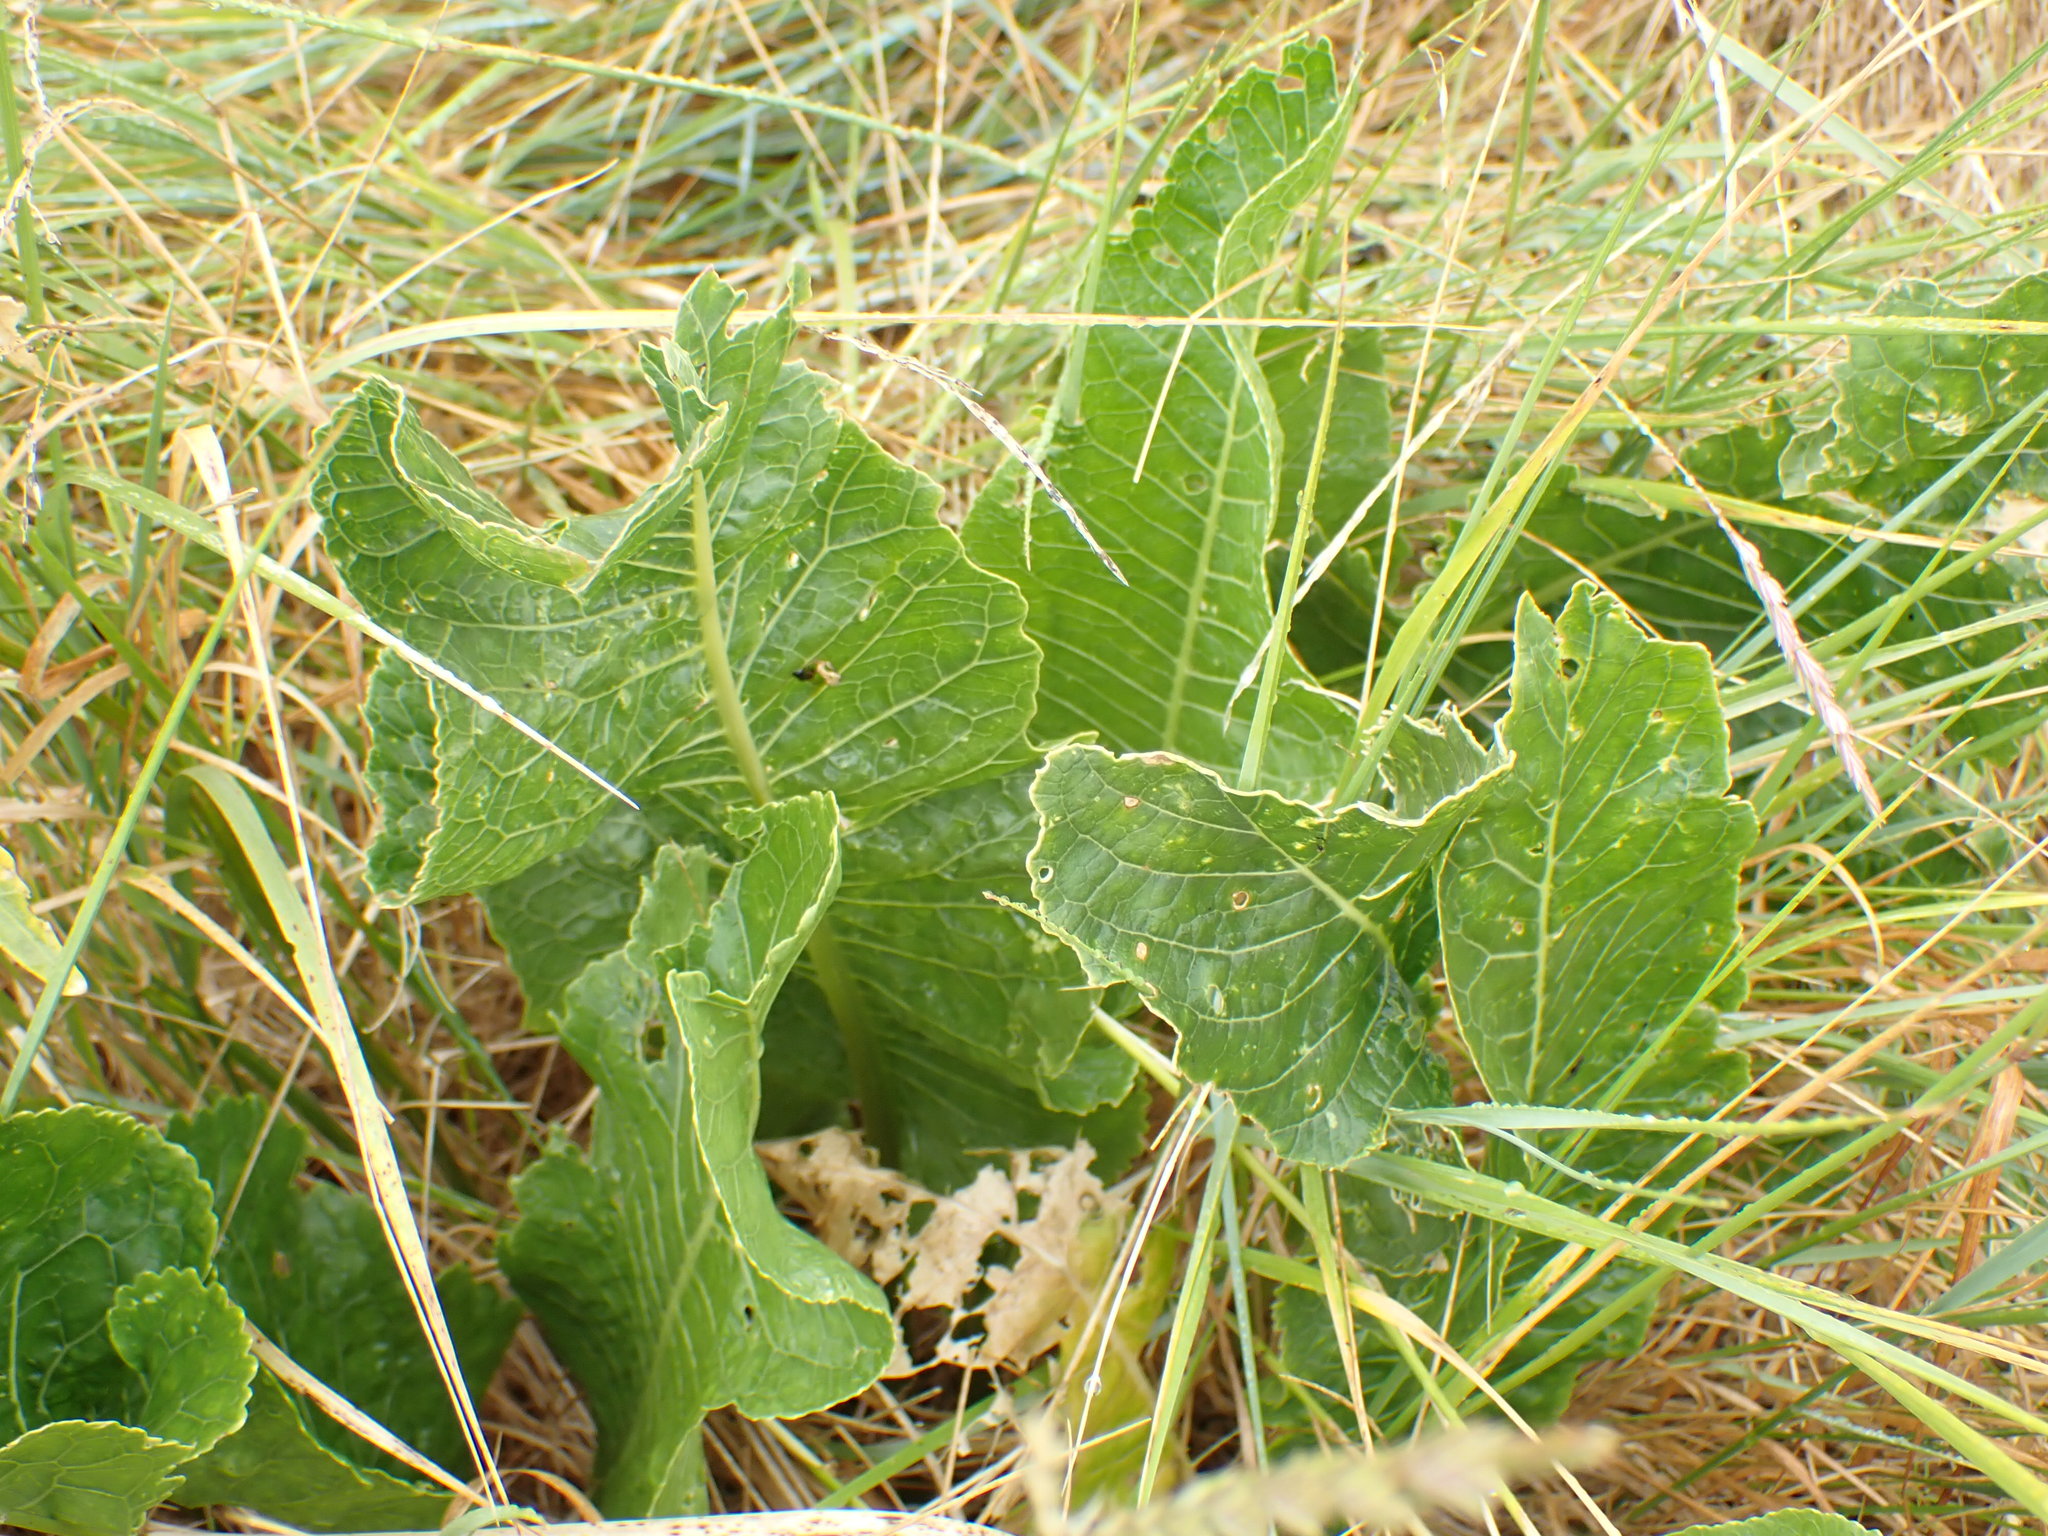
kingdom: Plantae
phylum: Tracheophyta
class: Magnoliopsida
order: Brassicales
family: Brassicaceae
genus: Armoracia
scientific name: Armoracia rusticana
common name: Horseradish
